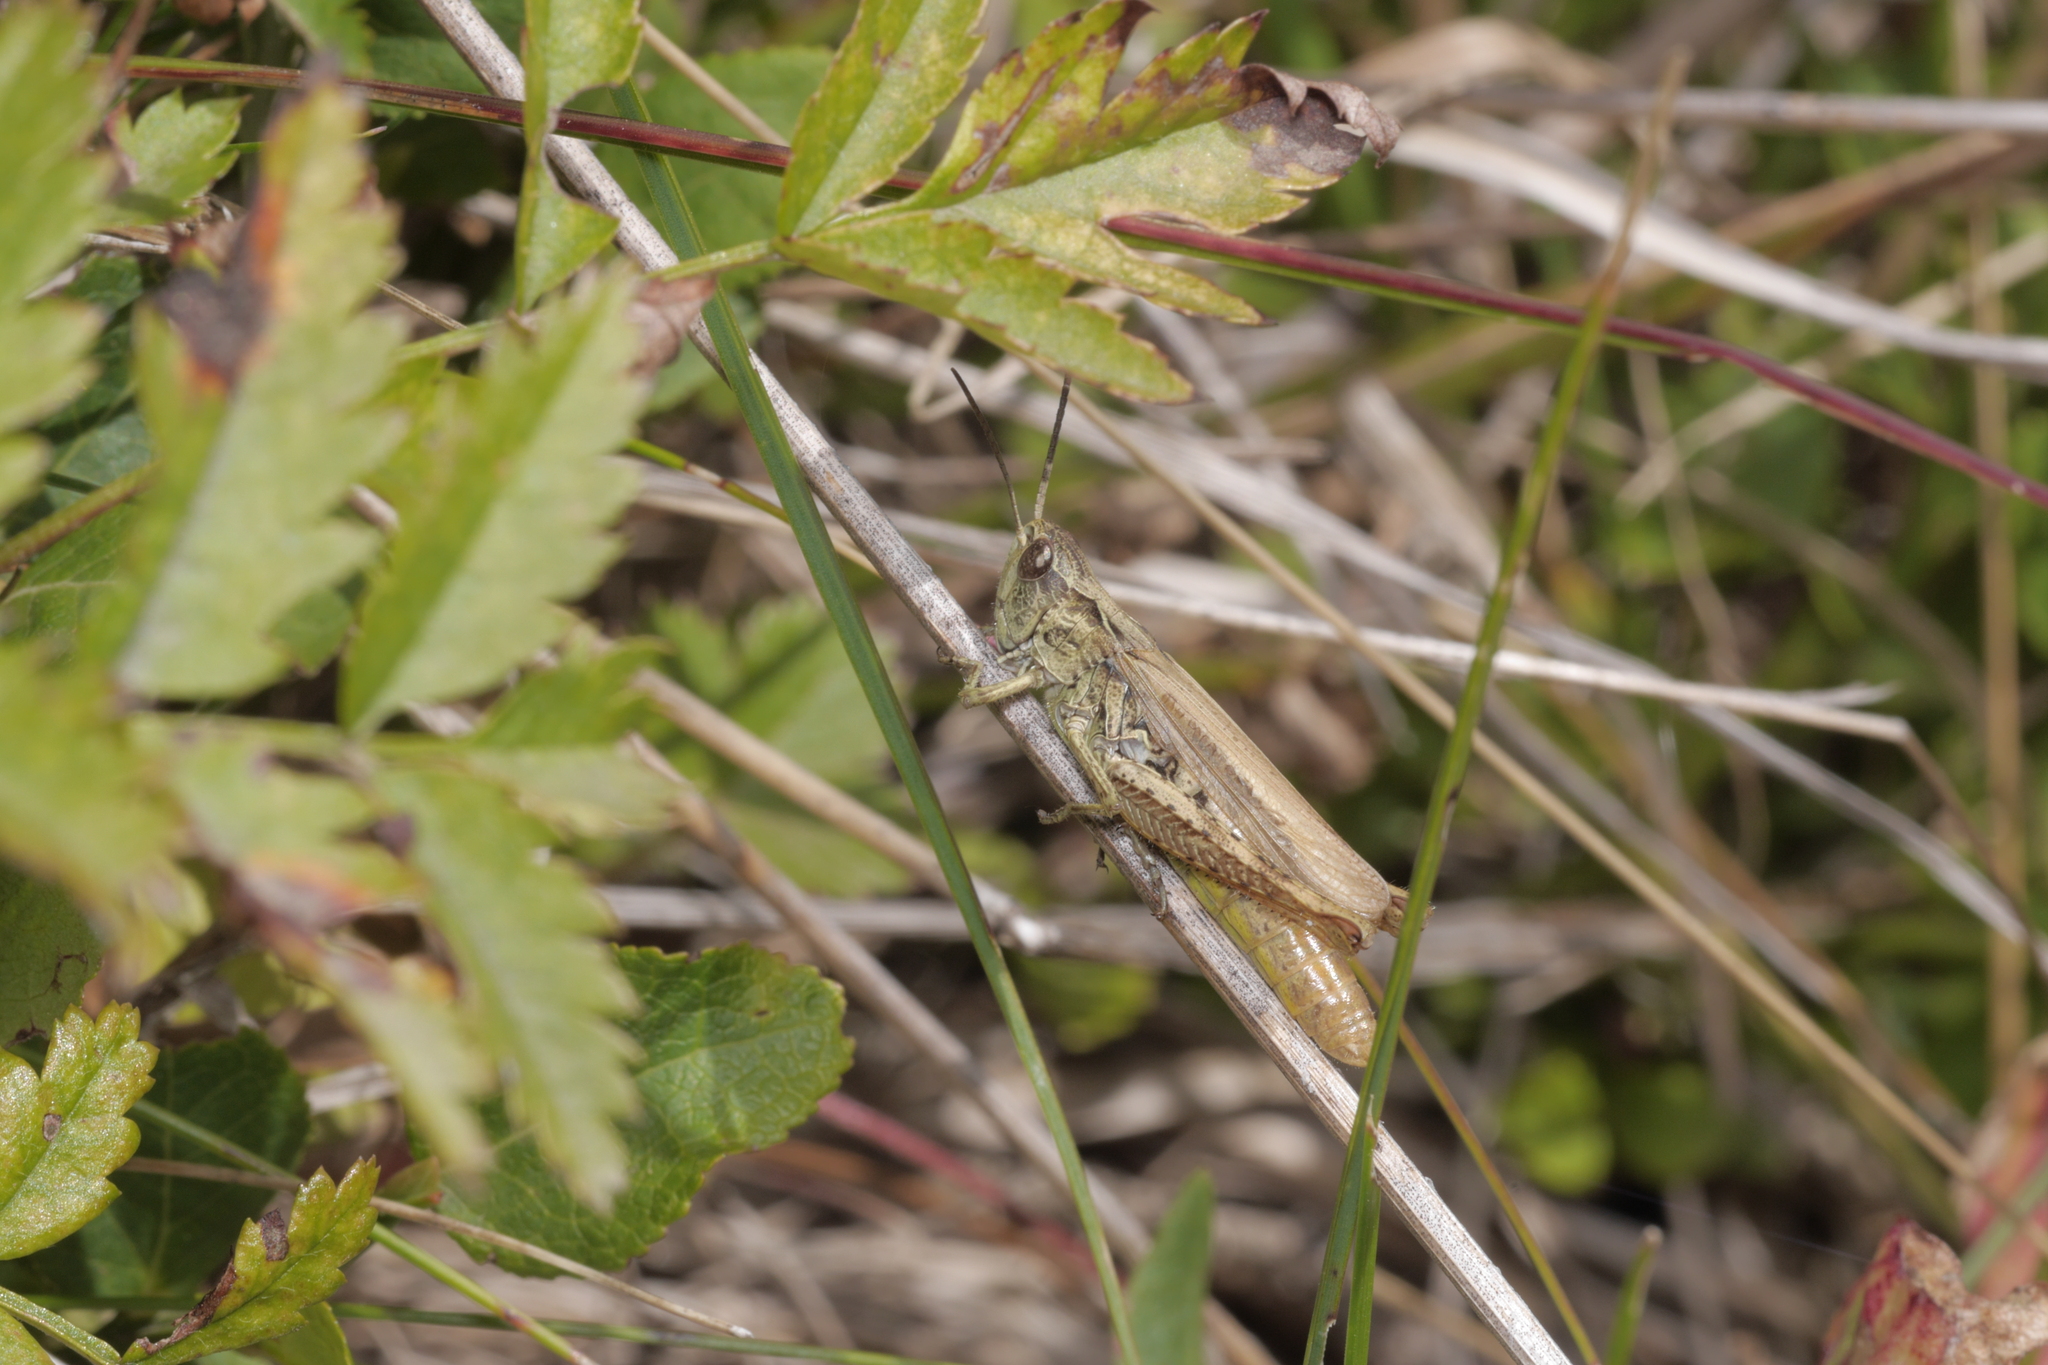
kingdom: Animalia
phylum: Arthropoda
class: Insecta
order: Orthoptera
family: Acrididae
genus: Chorthippus
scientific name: Chorthippus apricarius
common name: Upland field grasshopper
